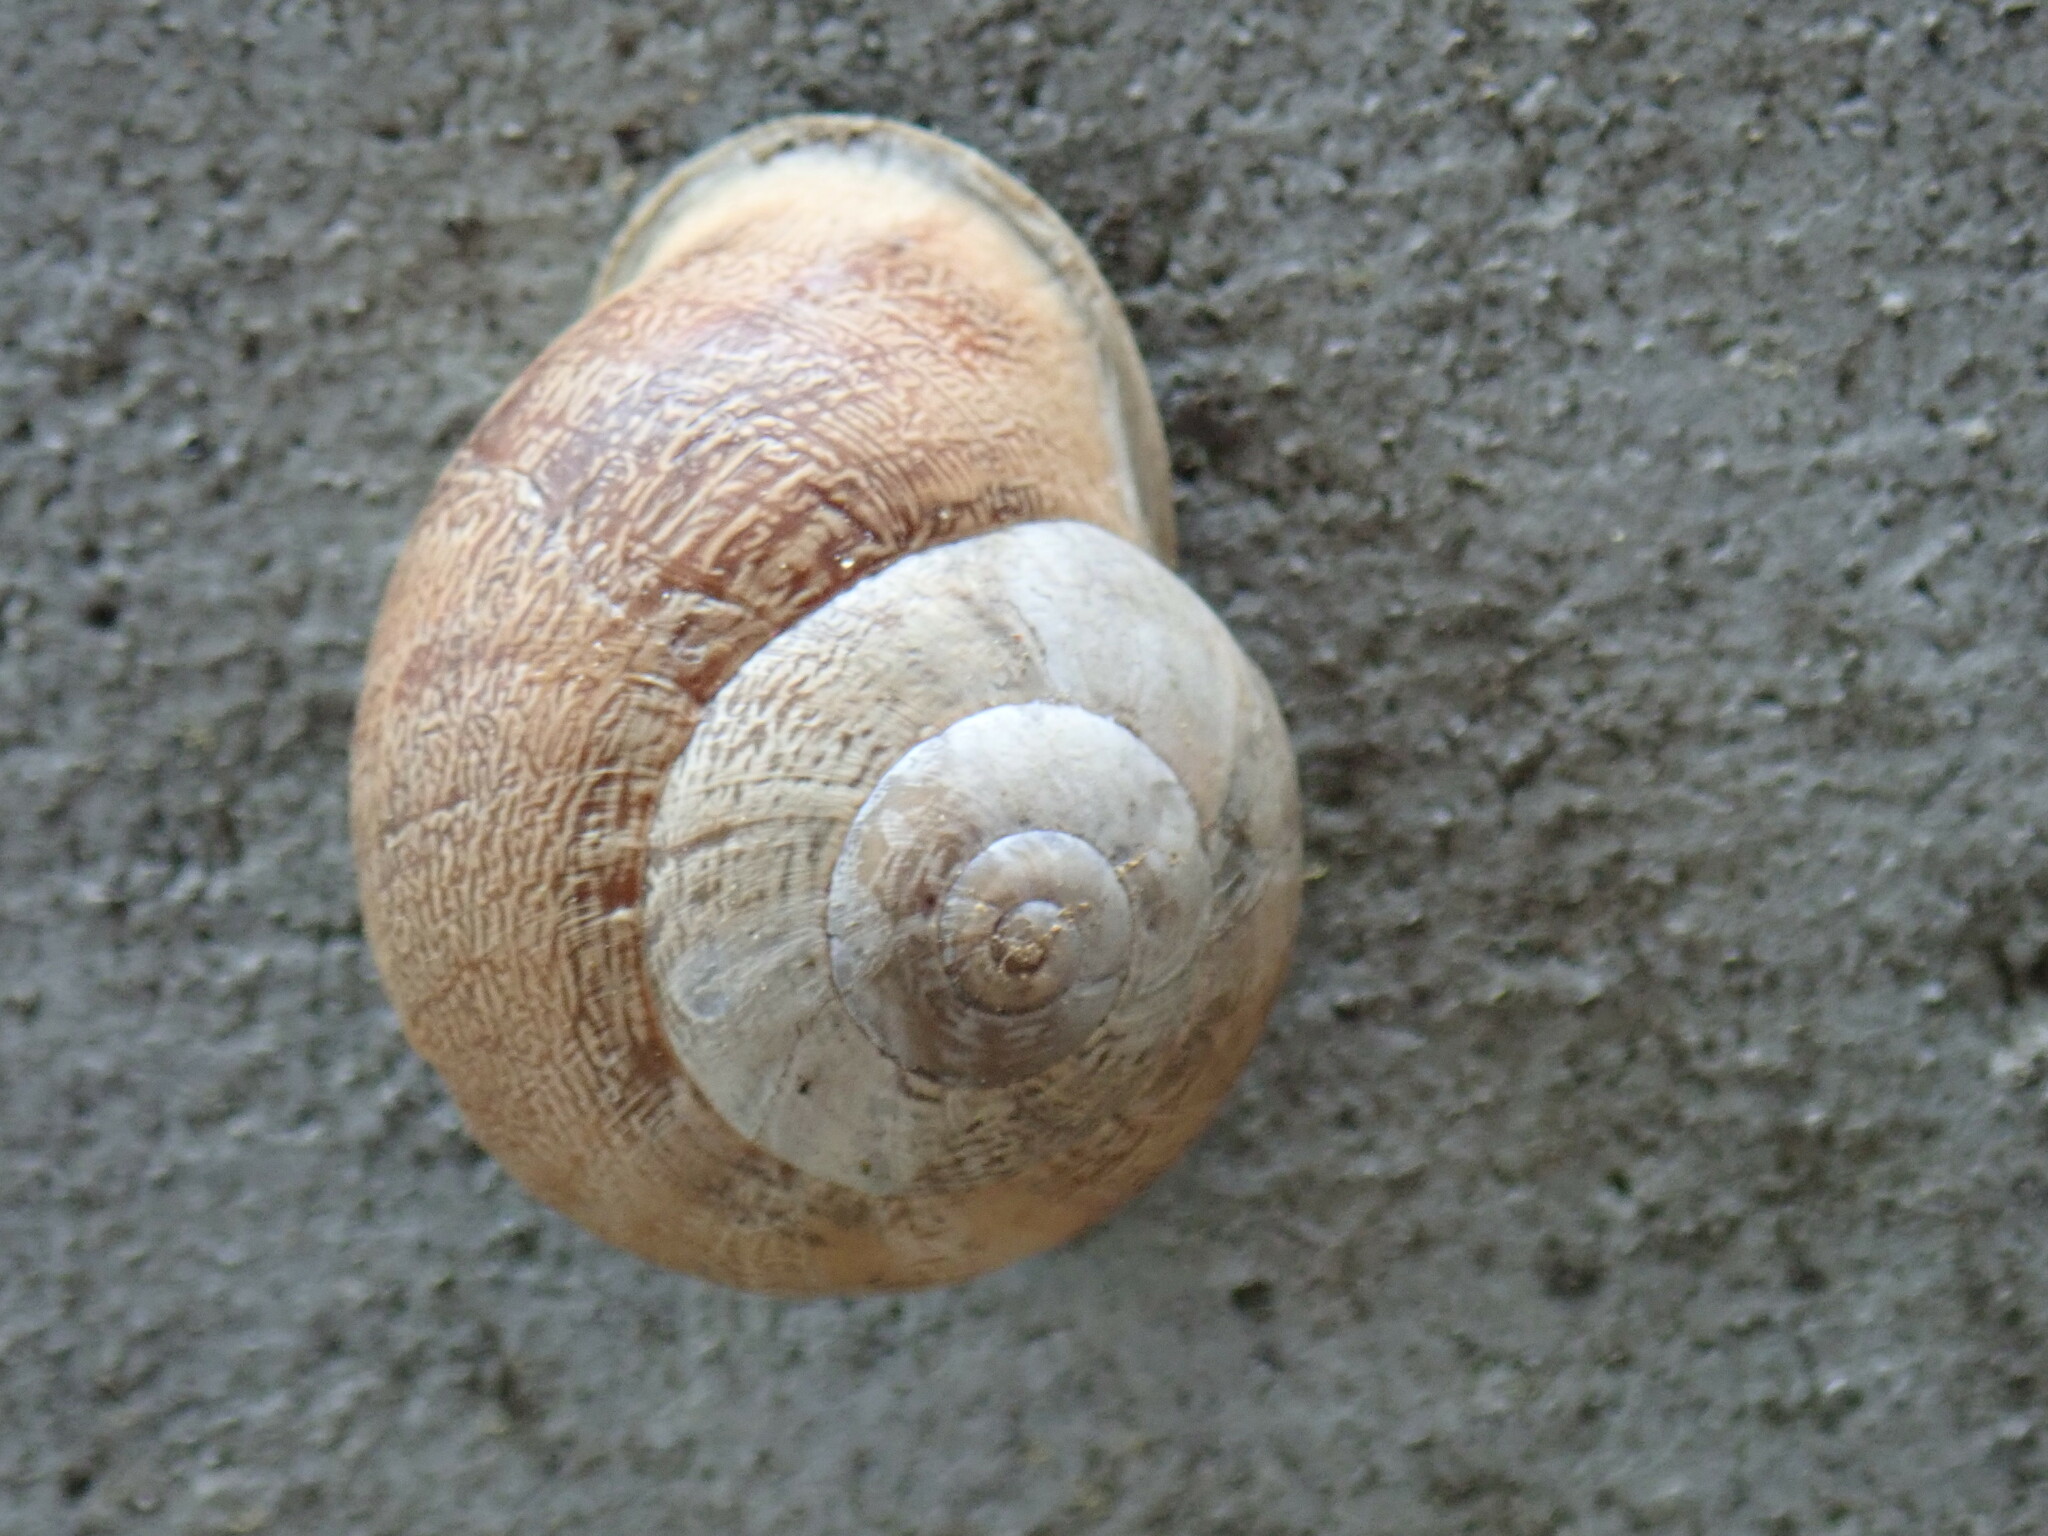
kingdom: Animalia
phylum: Mollusca
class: Gastropoda
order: Stylommatophora
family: Helicidae
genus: Eobania
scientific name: Eobania vermiculata
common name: Chocolateband snail
